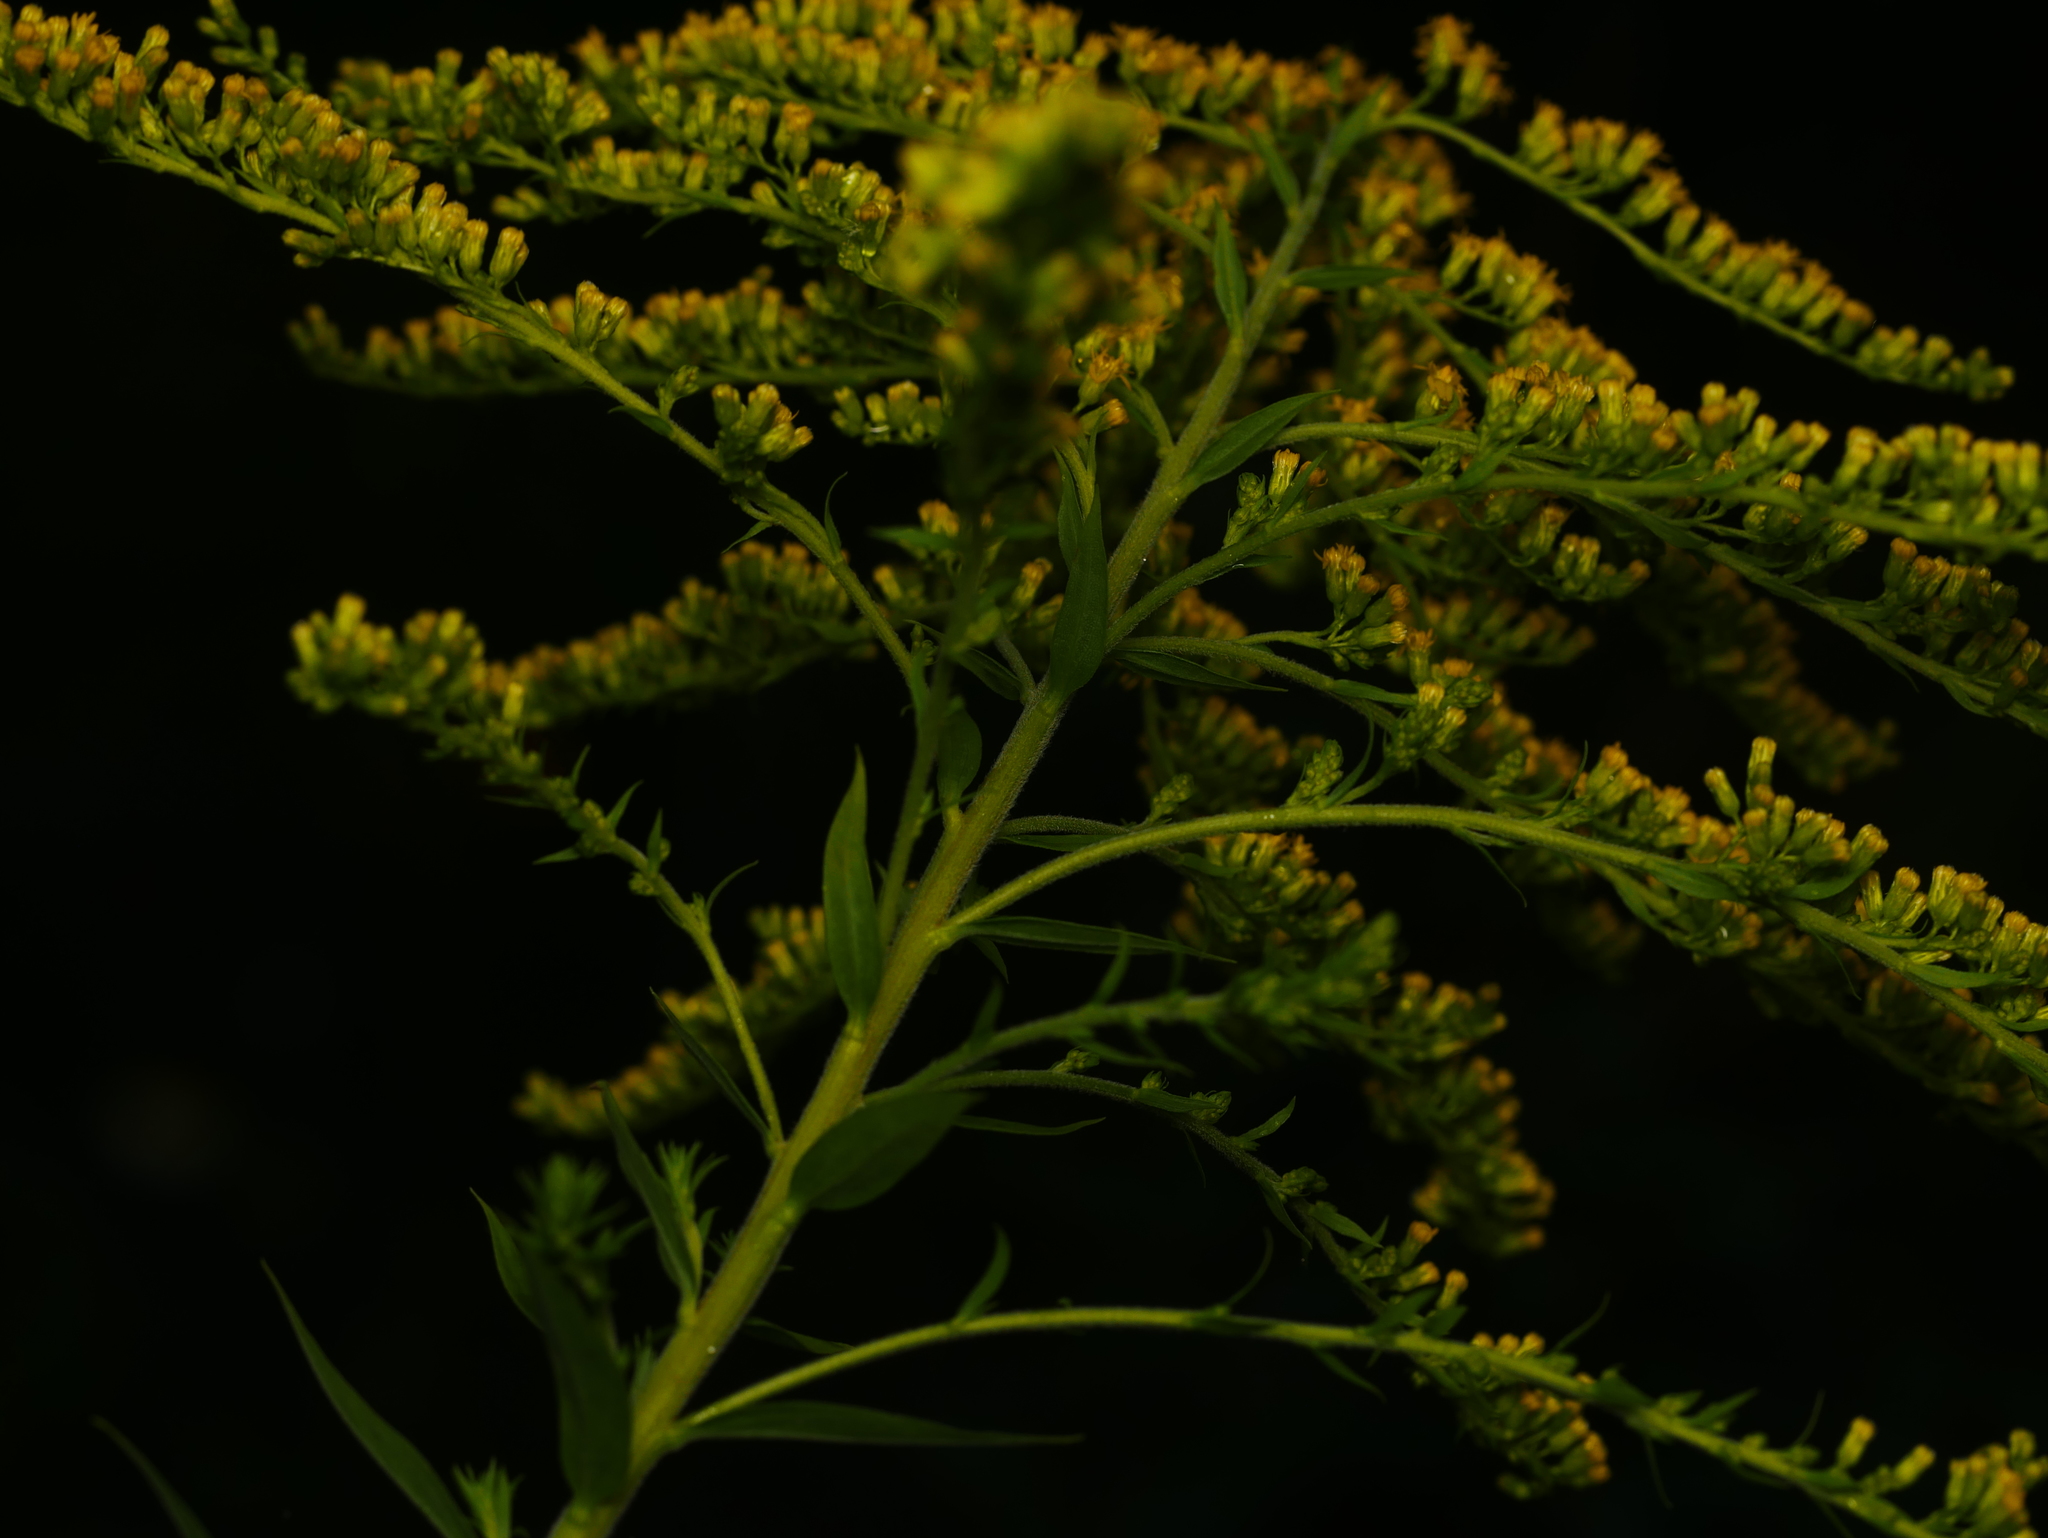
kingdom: Plantae
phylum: Tracheophyta
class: Magnoliopsida
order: Asterales
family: Asteraceae
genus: Solidago
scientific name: Solidago canadensis
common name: Canada goldenrod
